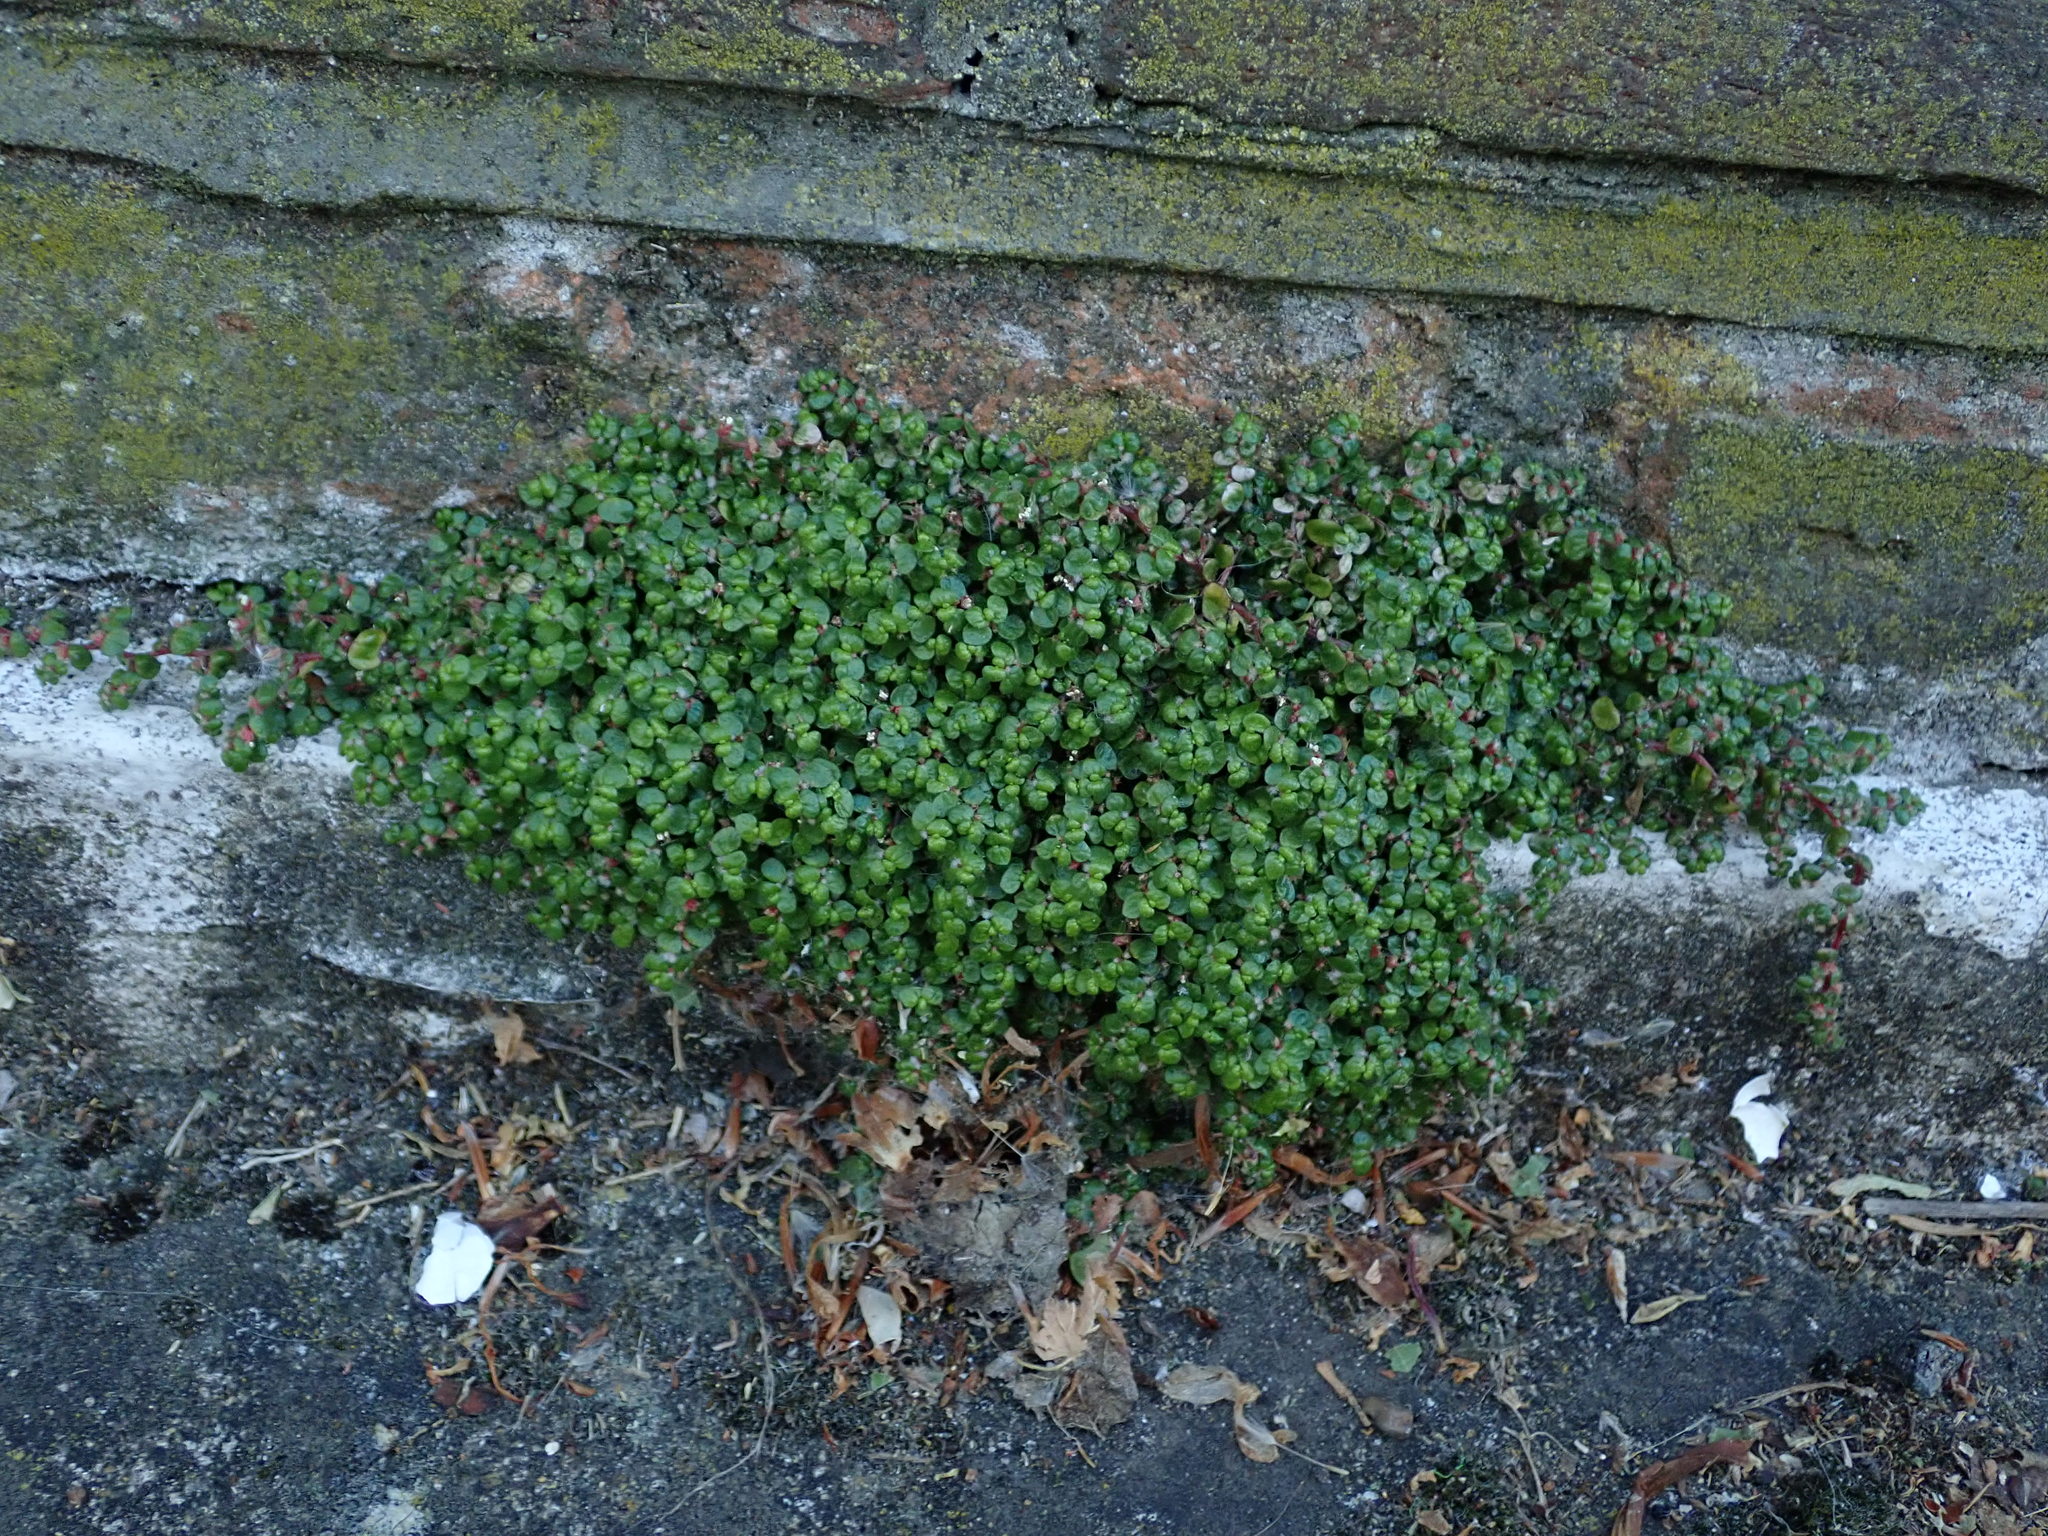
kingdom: Plantae
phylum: Tracheophyta
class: Magnoliopsida
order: Rosales
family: Urticaceae
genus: Soleirolia
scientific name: Soleirolia soleirolii
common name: Mind-your-own-business
